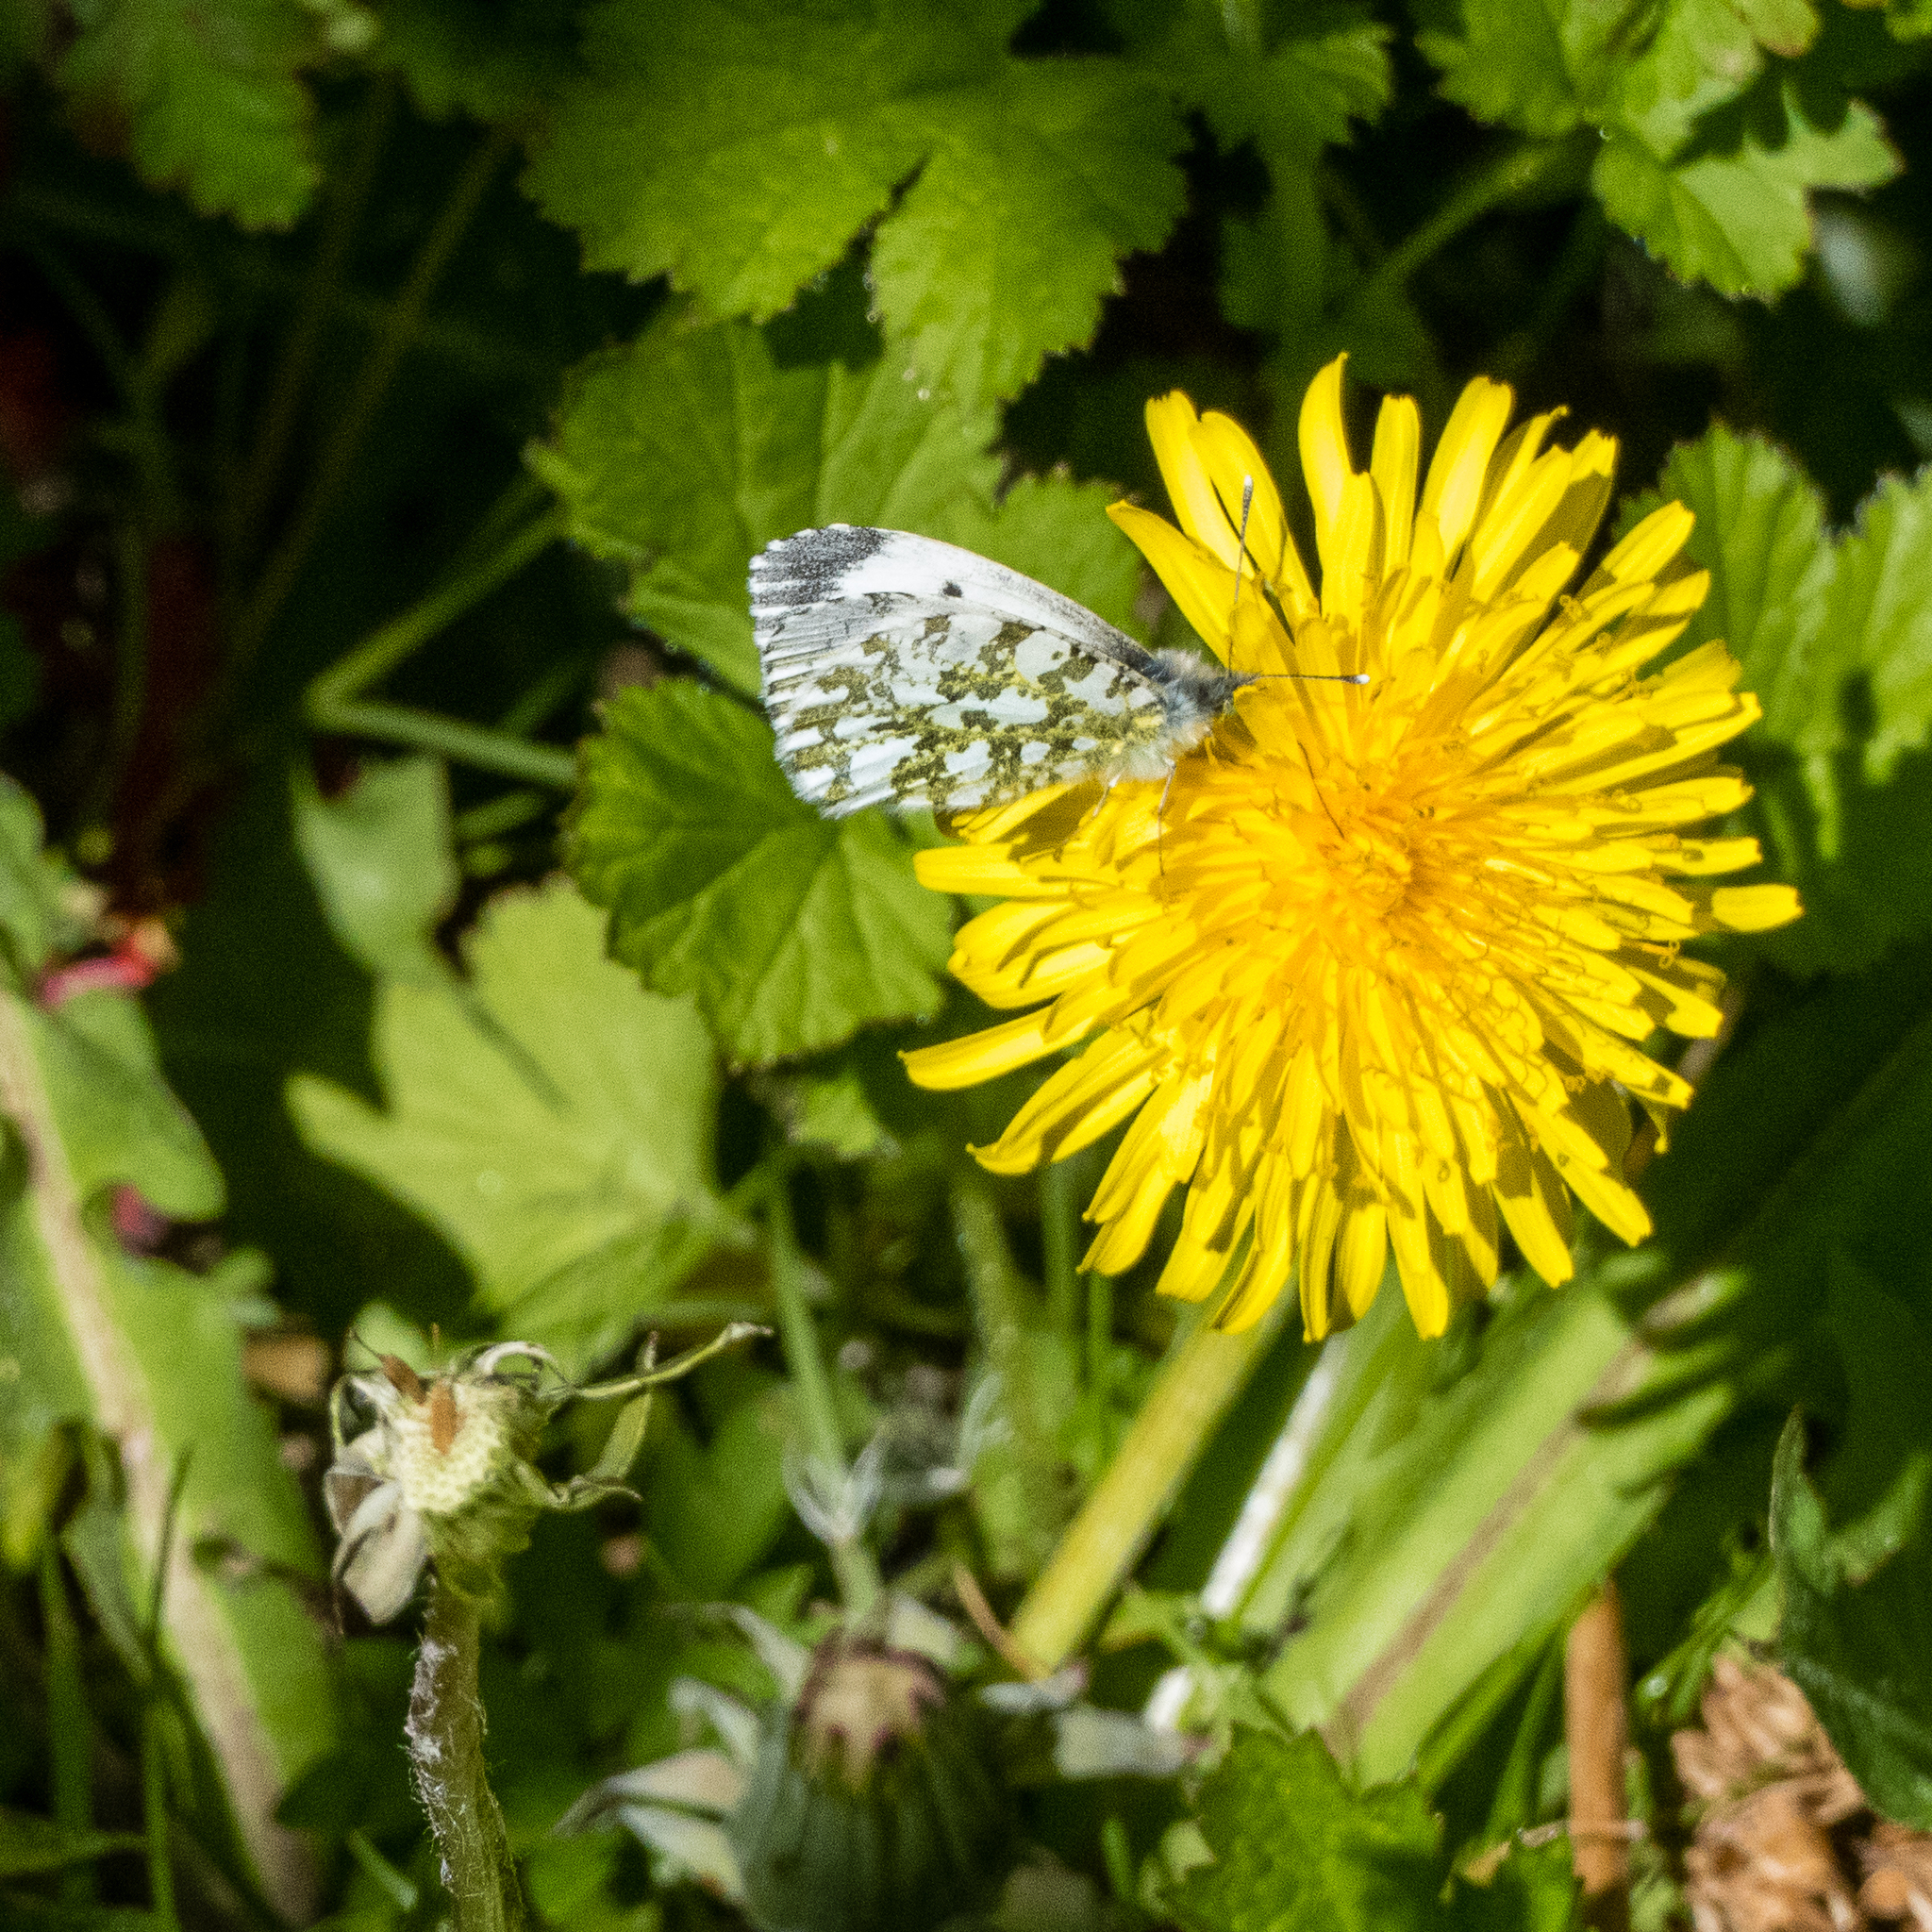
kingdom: Animalia
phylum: Arthropoda
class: Insecta
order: Lepidoptera
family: Pieridae
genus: Anthocharis
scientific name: Anthocharis cardamines
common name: Orange-tip
